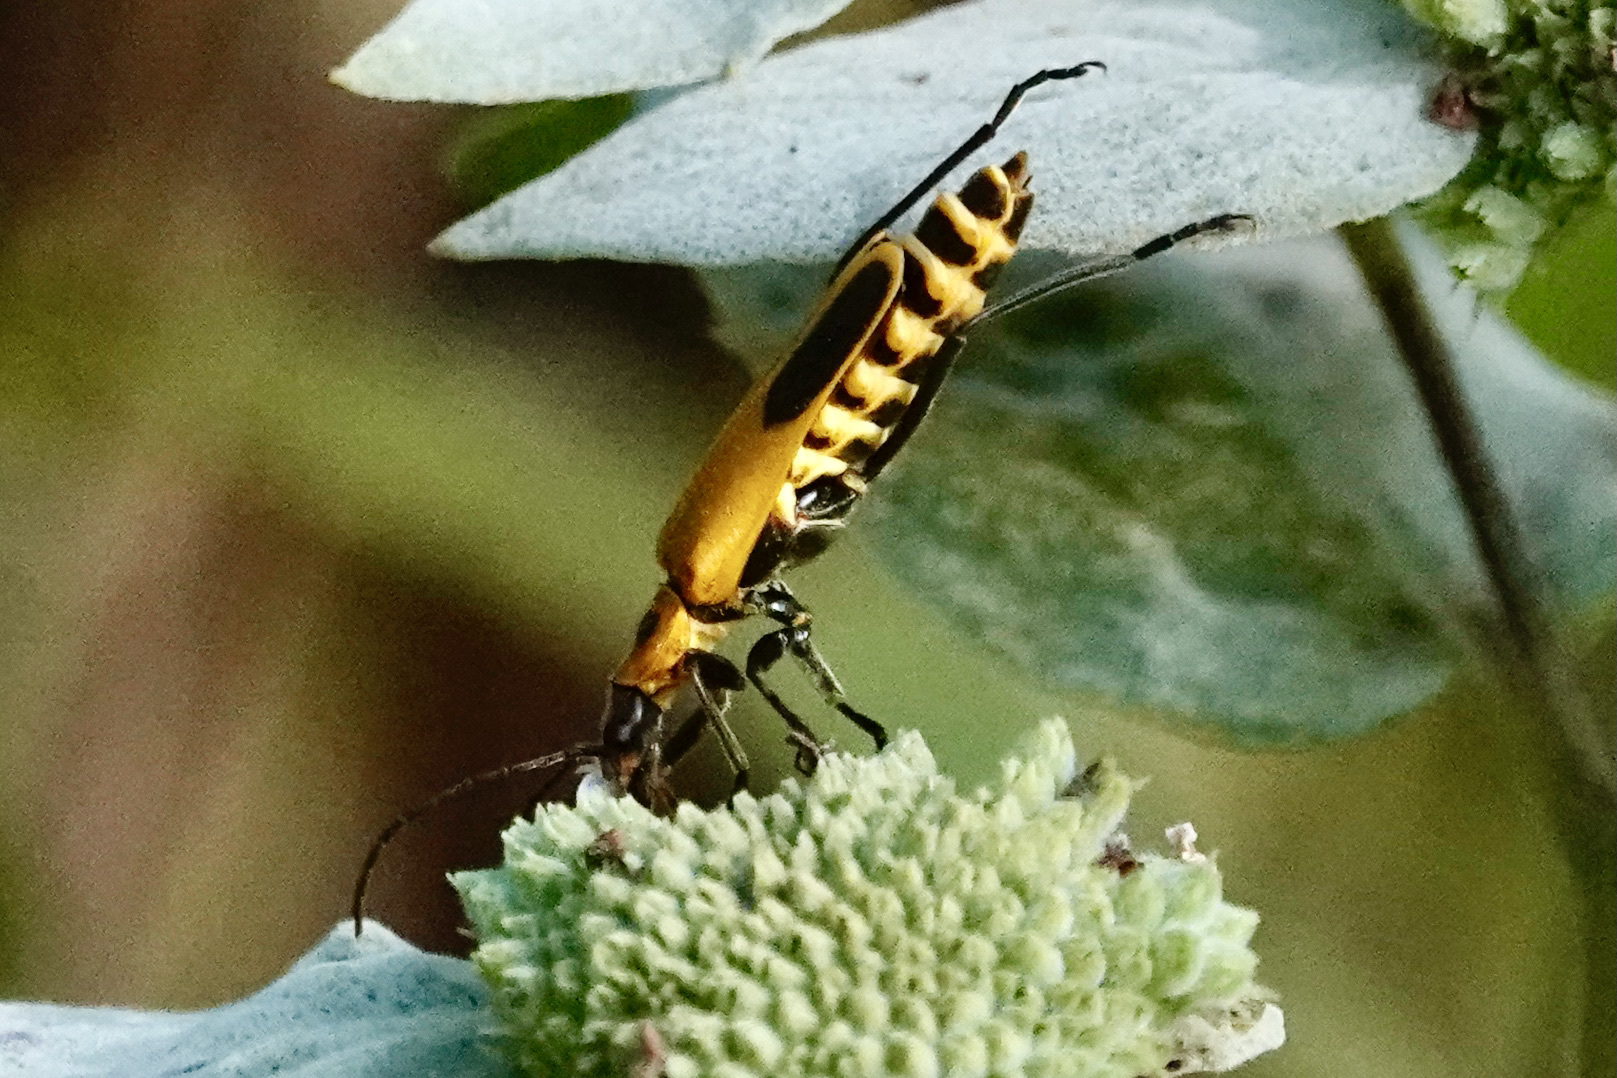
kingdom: Animalia
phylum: Arthropoda
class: Insecta
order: Coleoptera
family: Cantharidae
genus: Chauliognathus
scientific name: Chauliognathus pensylvanicus
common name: Goldenrod soldier beetle
